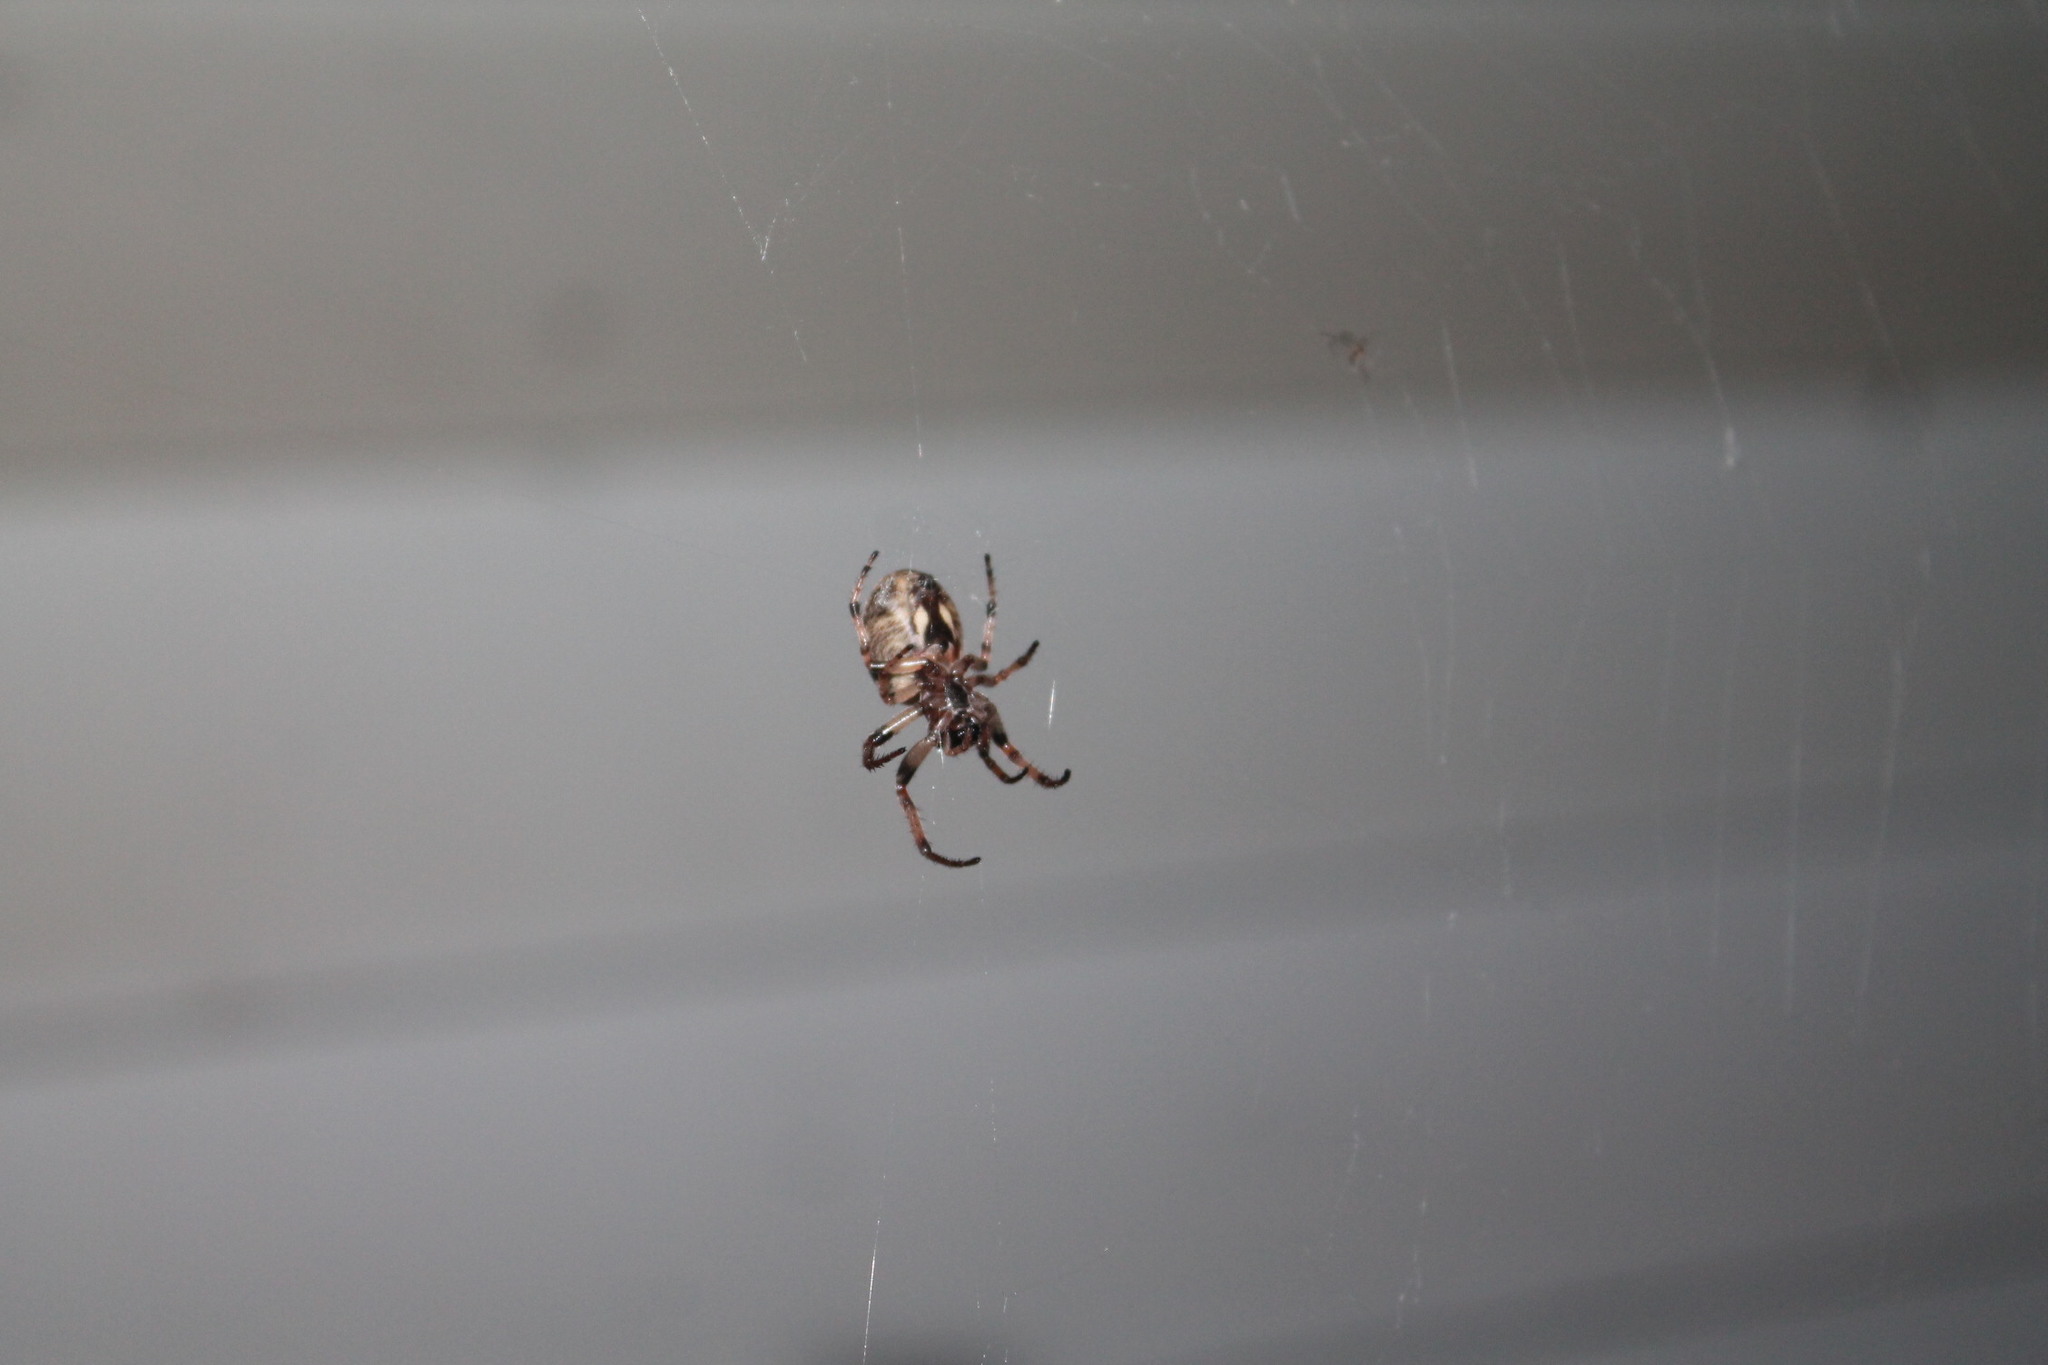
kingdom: Animalia
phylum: Arthropoda
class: Arachnida
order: Araneae
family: Araneidae
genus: Larinioides
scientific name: Larinioides cornutus
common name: Furrow orbweaver
